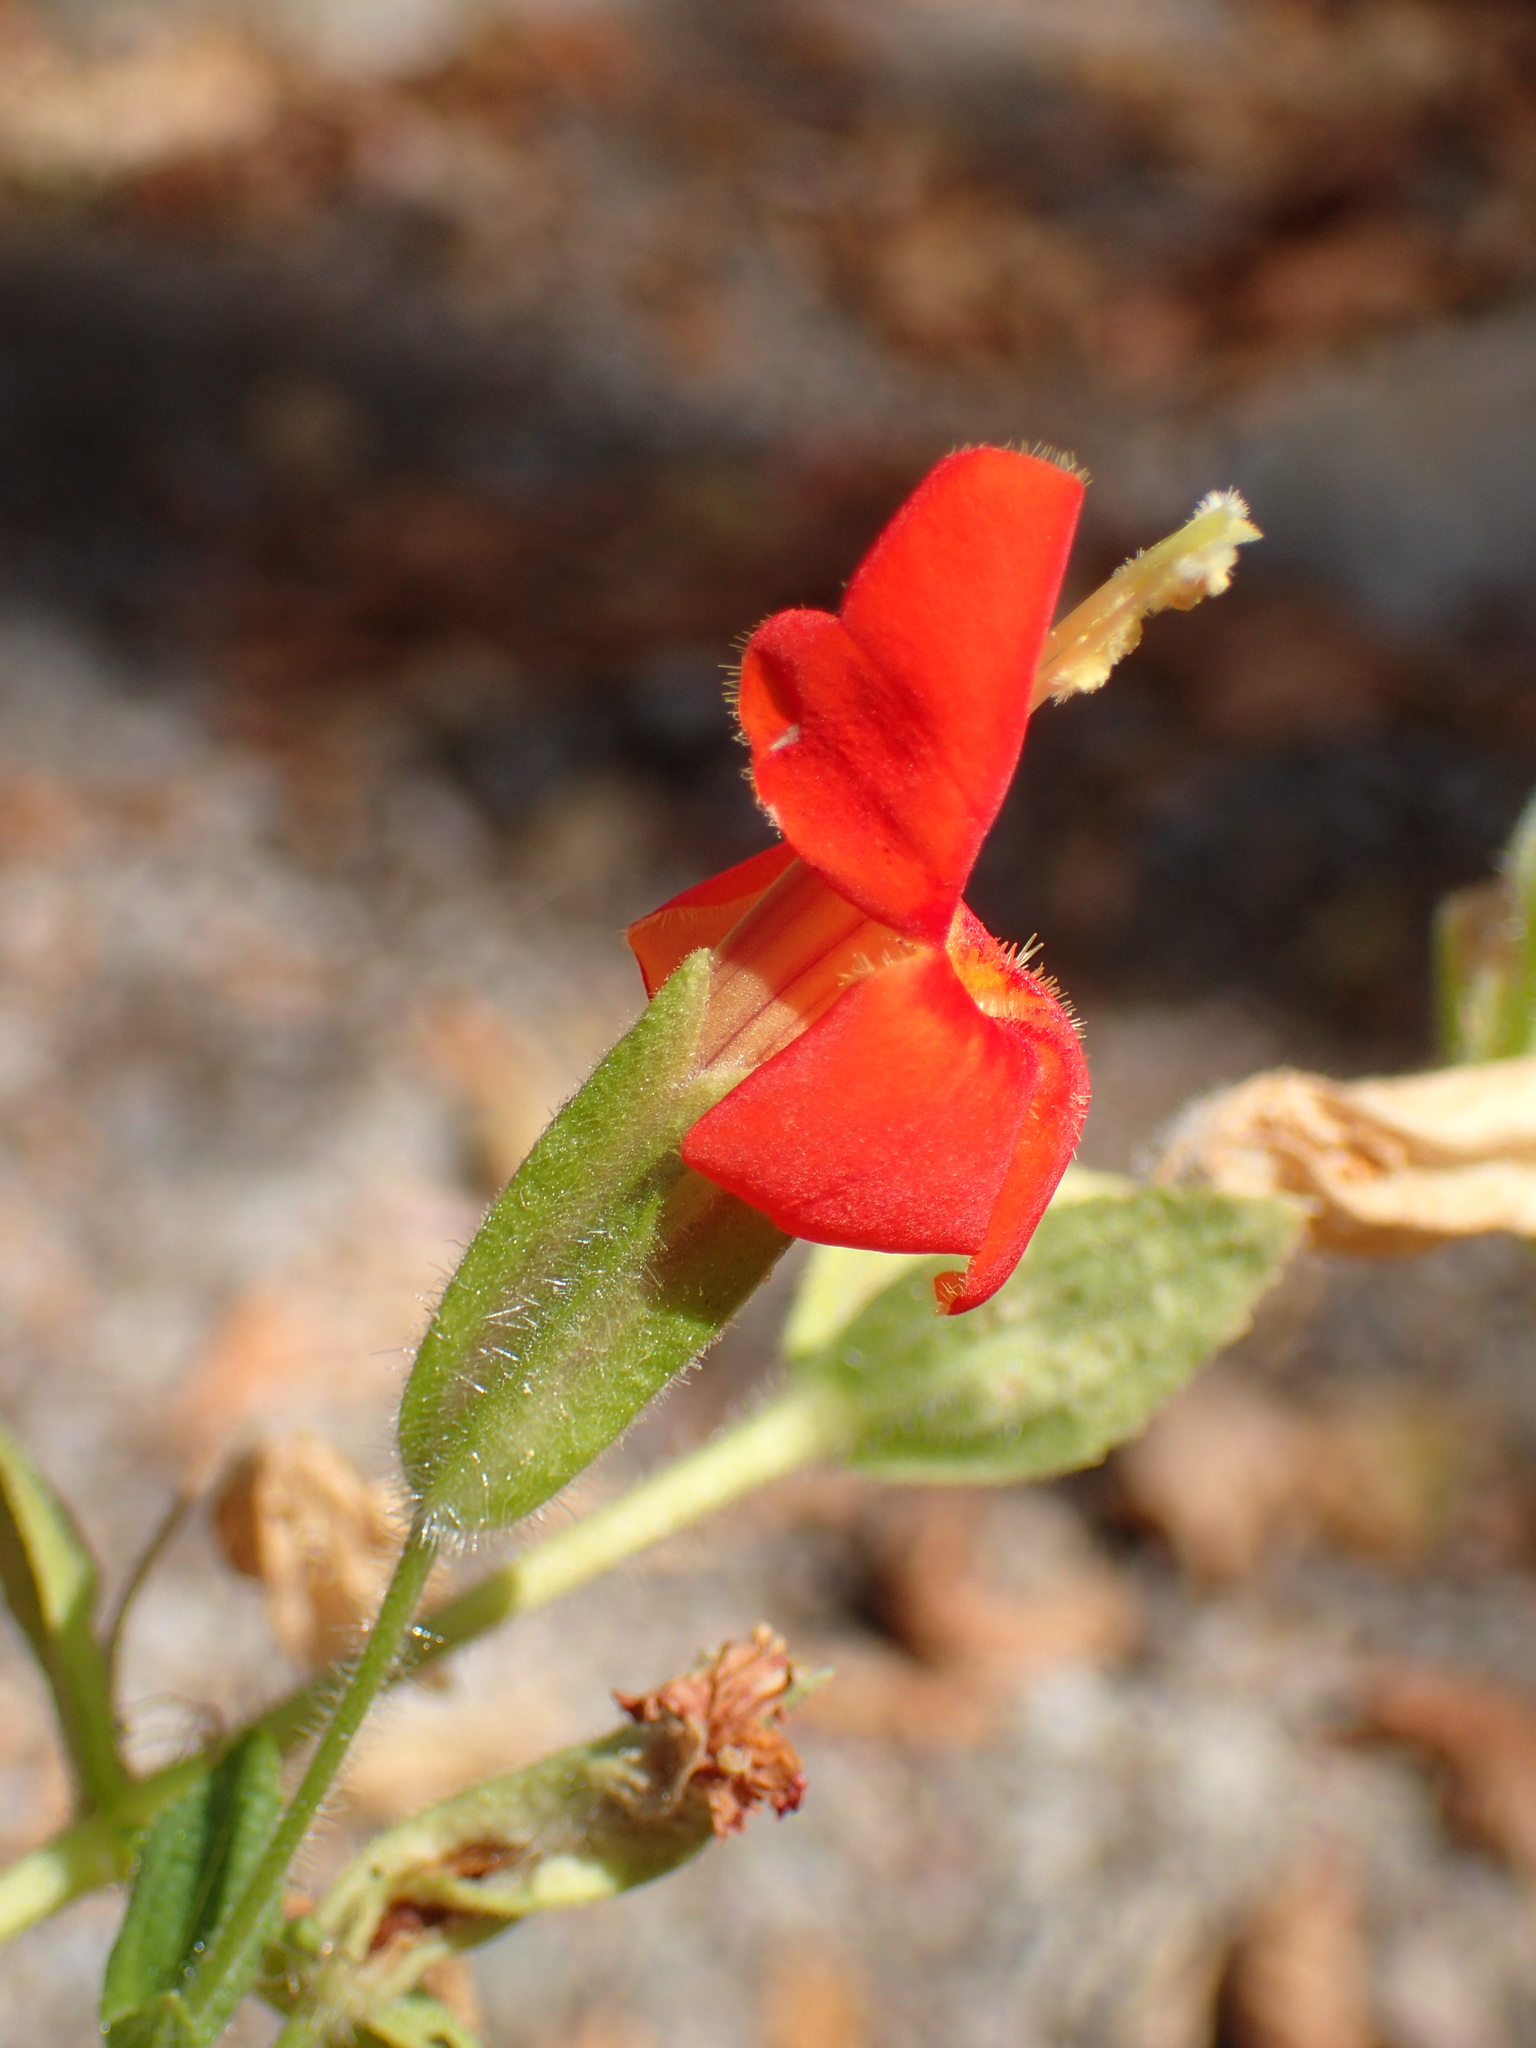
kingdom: Plantae
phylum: Tracheophyta
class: Magnoliopsida
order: Lamiales
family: Phrymaceae
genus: Erythranthe
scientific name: Erythranthe cardinalis
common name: Scarlet monkey-flower
